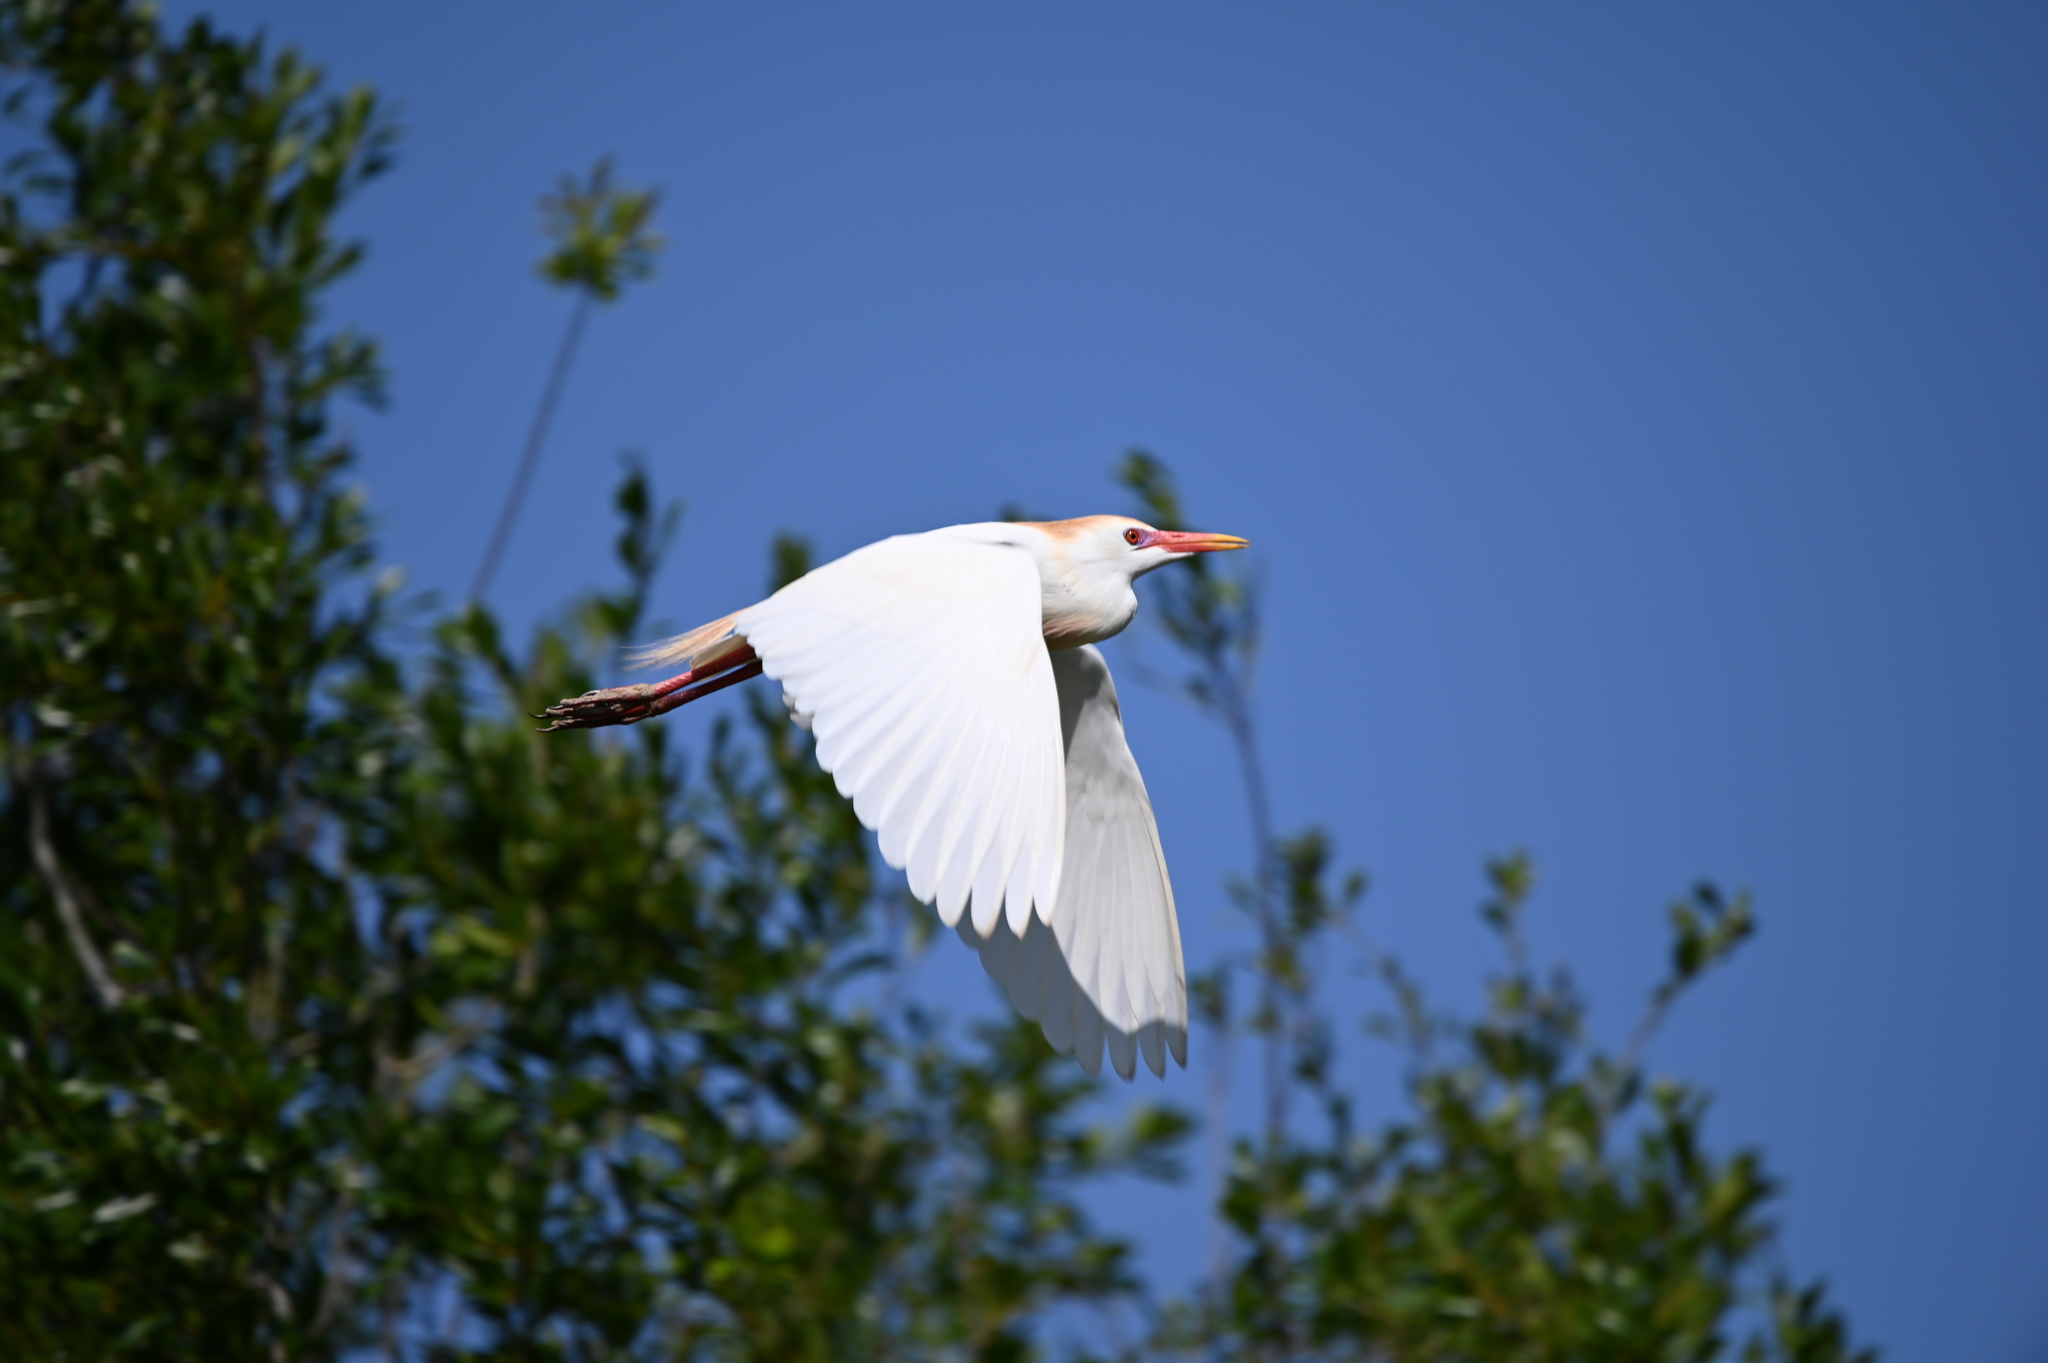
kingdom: Animalia
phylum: Chordata
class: Aves
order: Pelecaniformes
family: Ardeidae
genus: Bubulcus
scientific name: Bubulcus ibis
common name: Cattle egret
